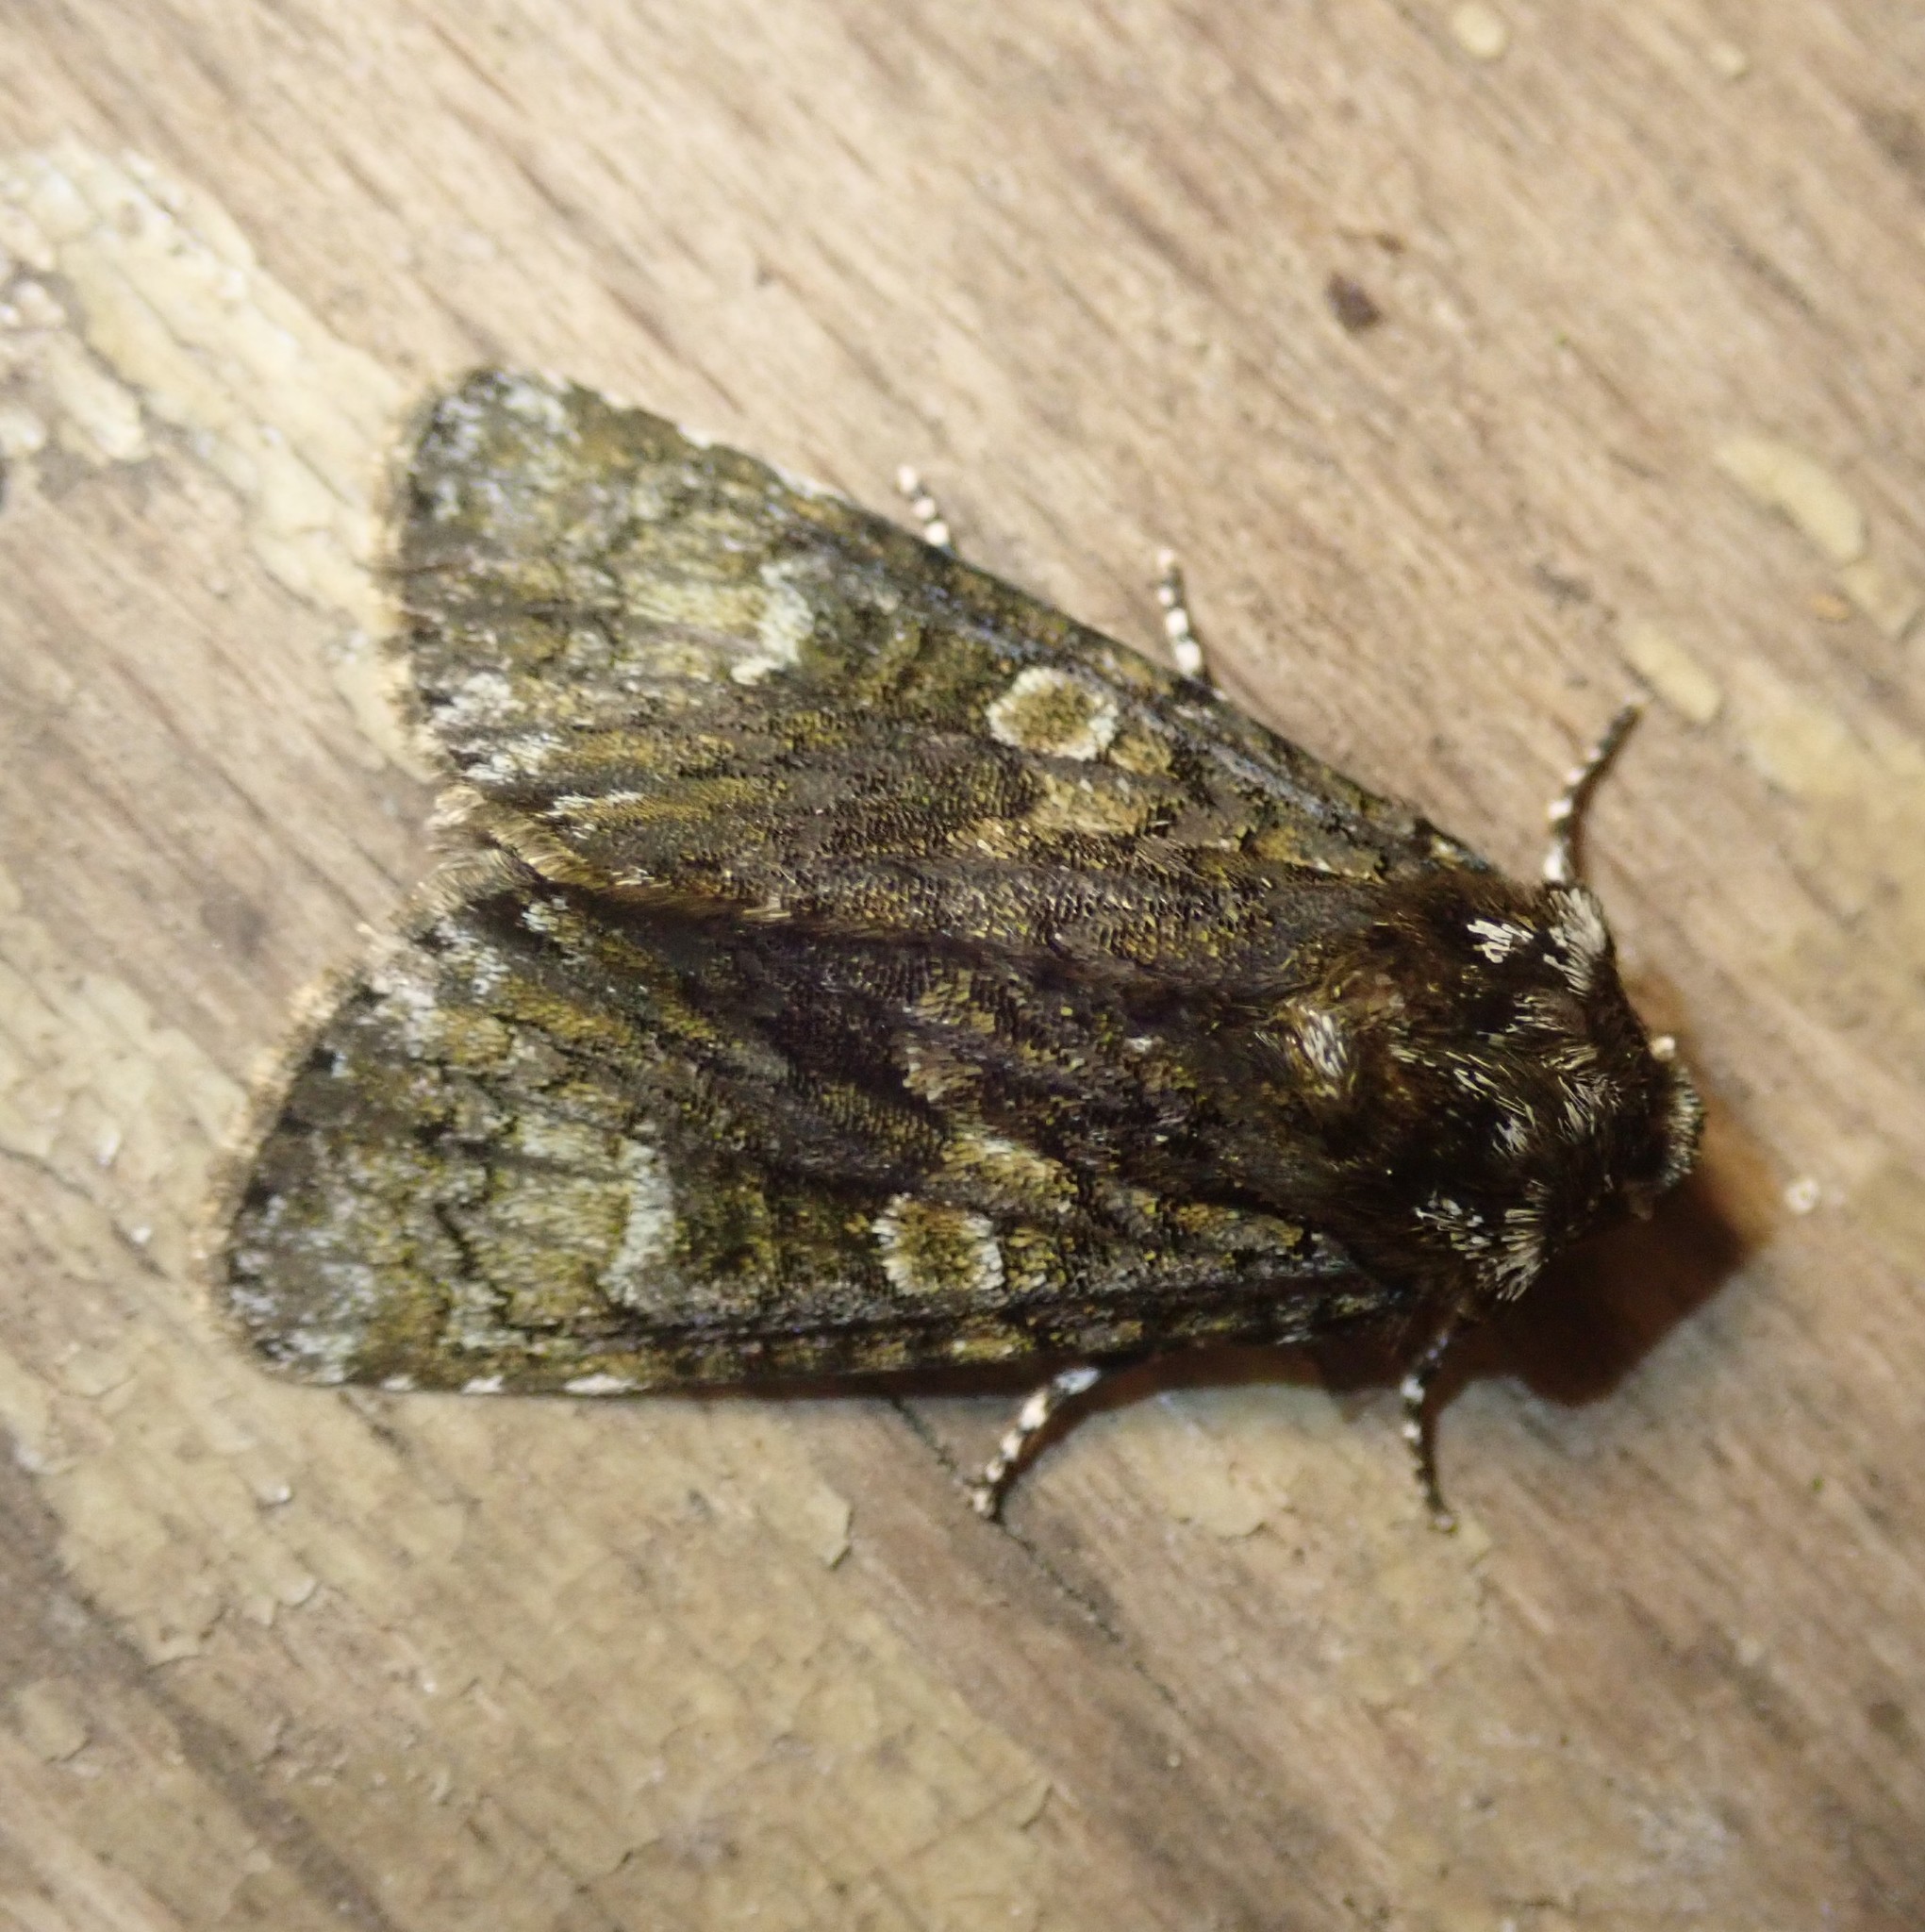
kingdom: Animalia
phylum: Arthropoda
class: Insecta
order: Lepidoptera
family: Noctuidae
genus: Craniophora
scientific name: Craniophora ligustri
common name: Coronet
